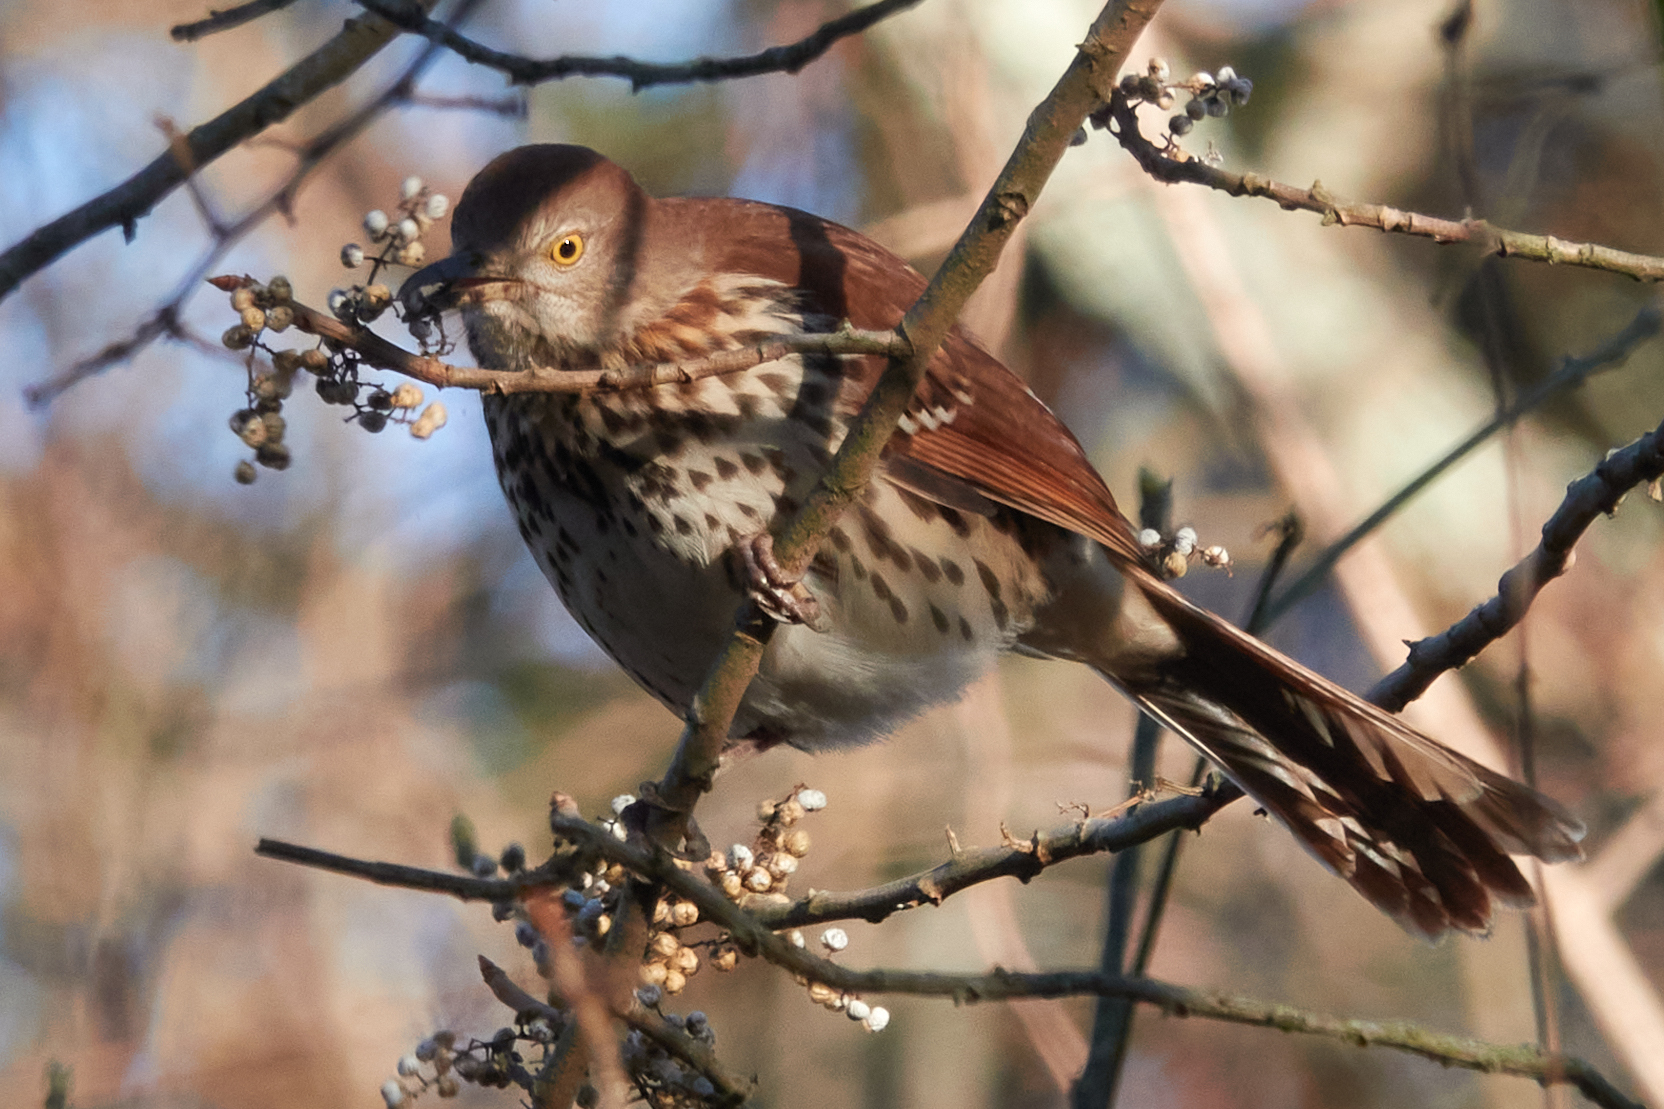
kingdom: Animalia
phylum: Chordata
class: Aves
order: Passeriformes
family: Mimidae
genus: Toxostoma
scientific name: Toxostoma rufum
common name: Brown thrasher
